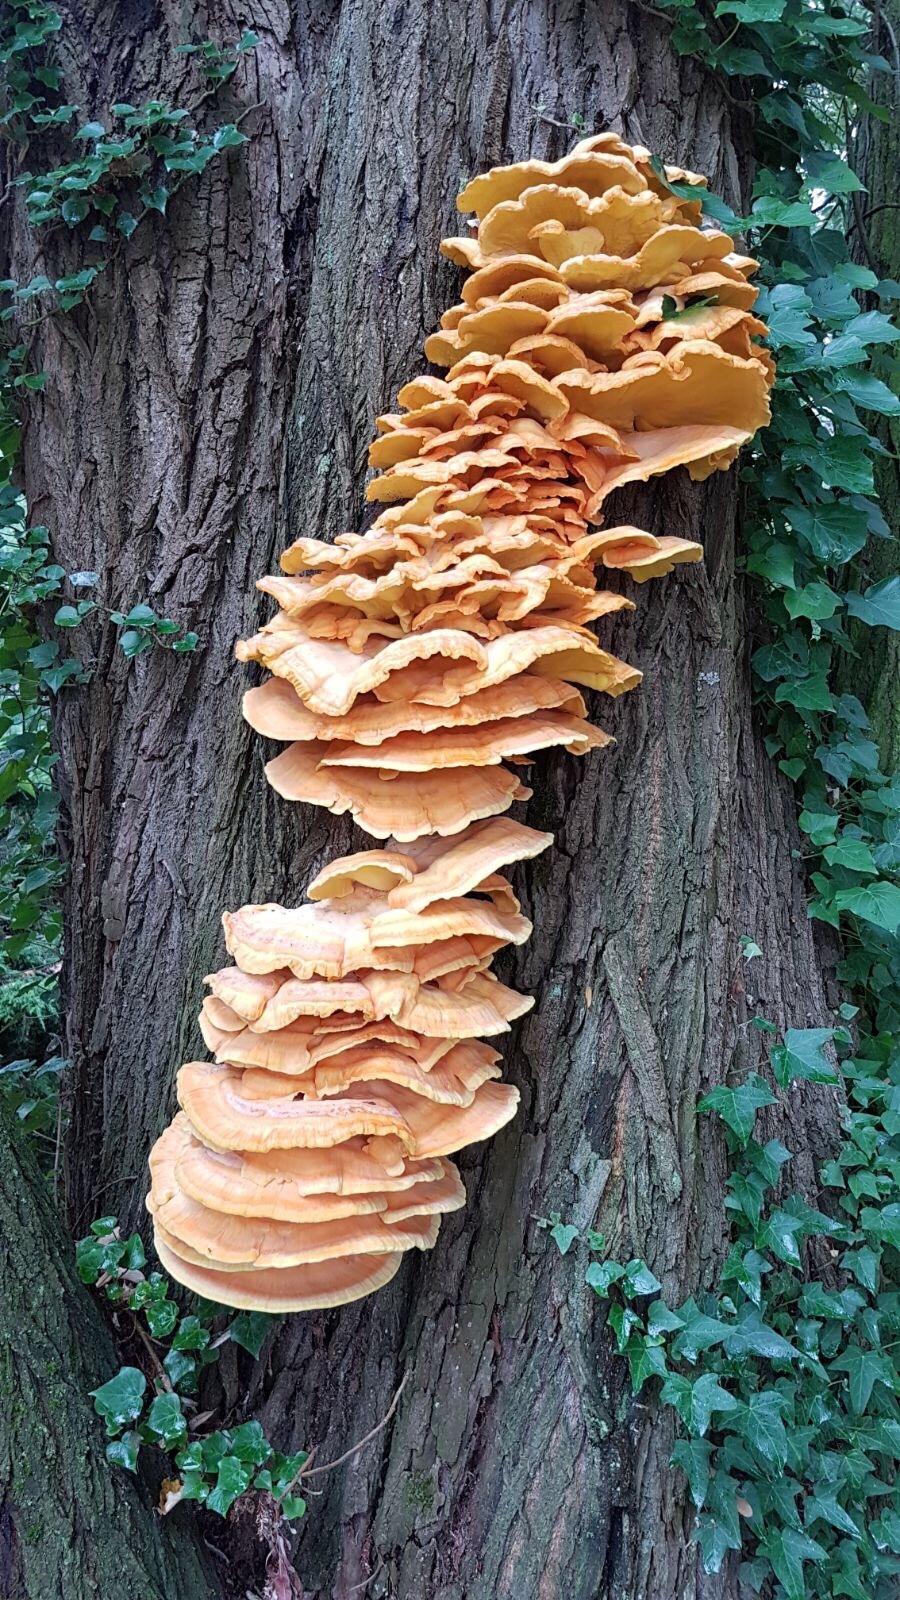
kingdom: Fungi
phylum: Basidiomycota
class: Agaricomycetes
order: Polyporales
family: Laetiporaceae
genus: Laetiporus
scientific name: Laetiporus sulphureus
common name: Chicken of the woods
